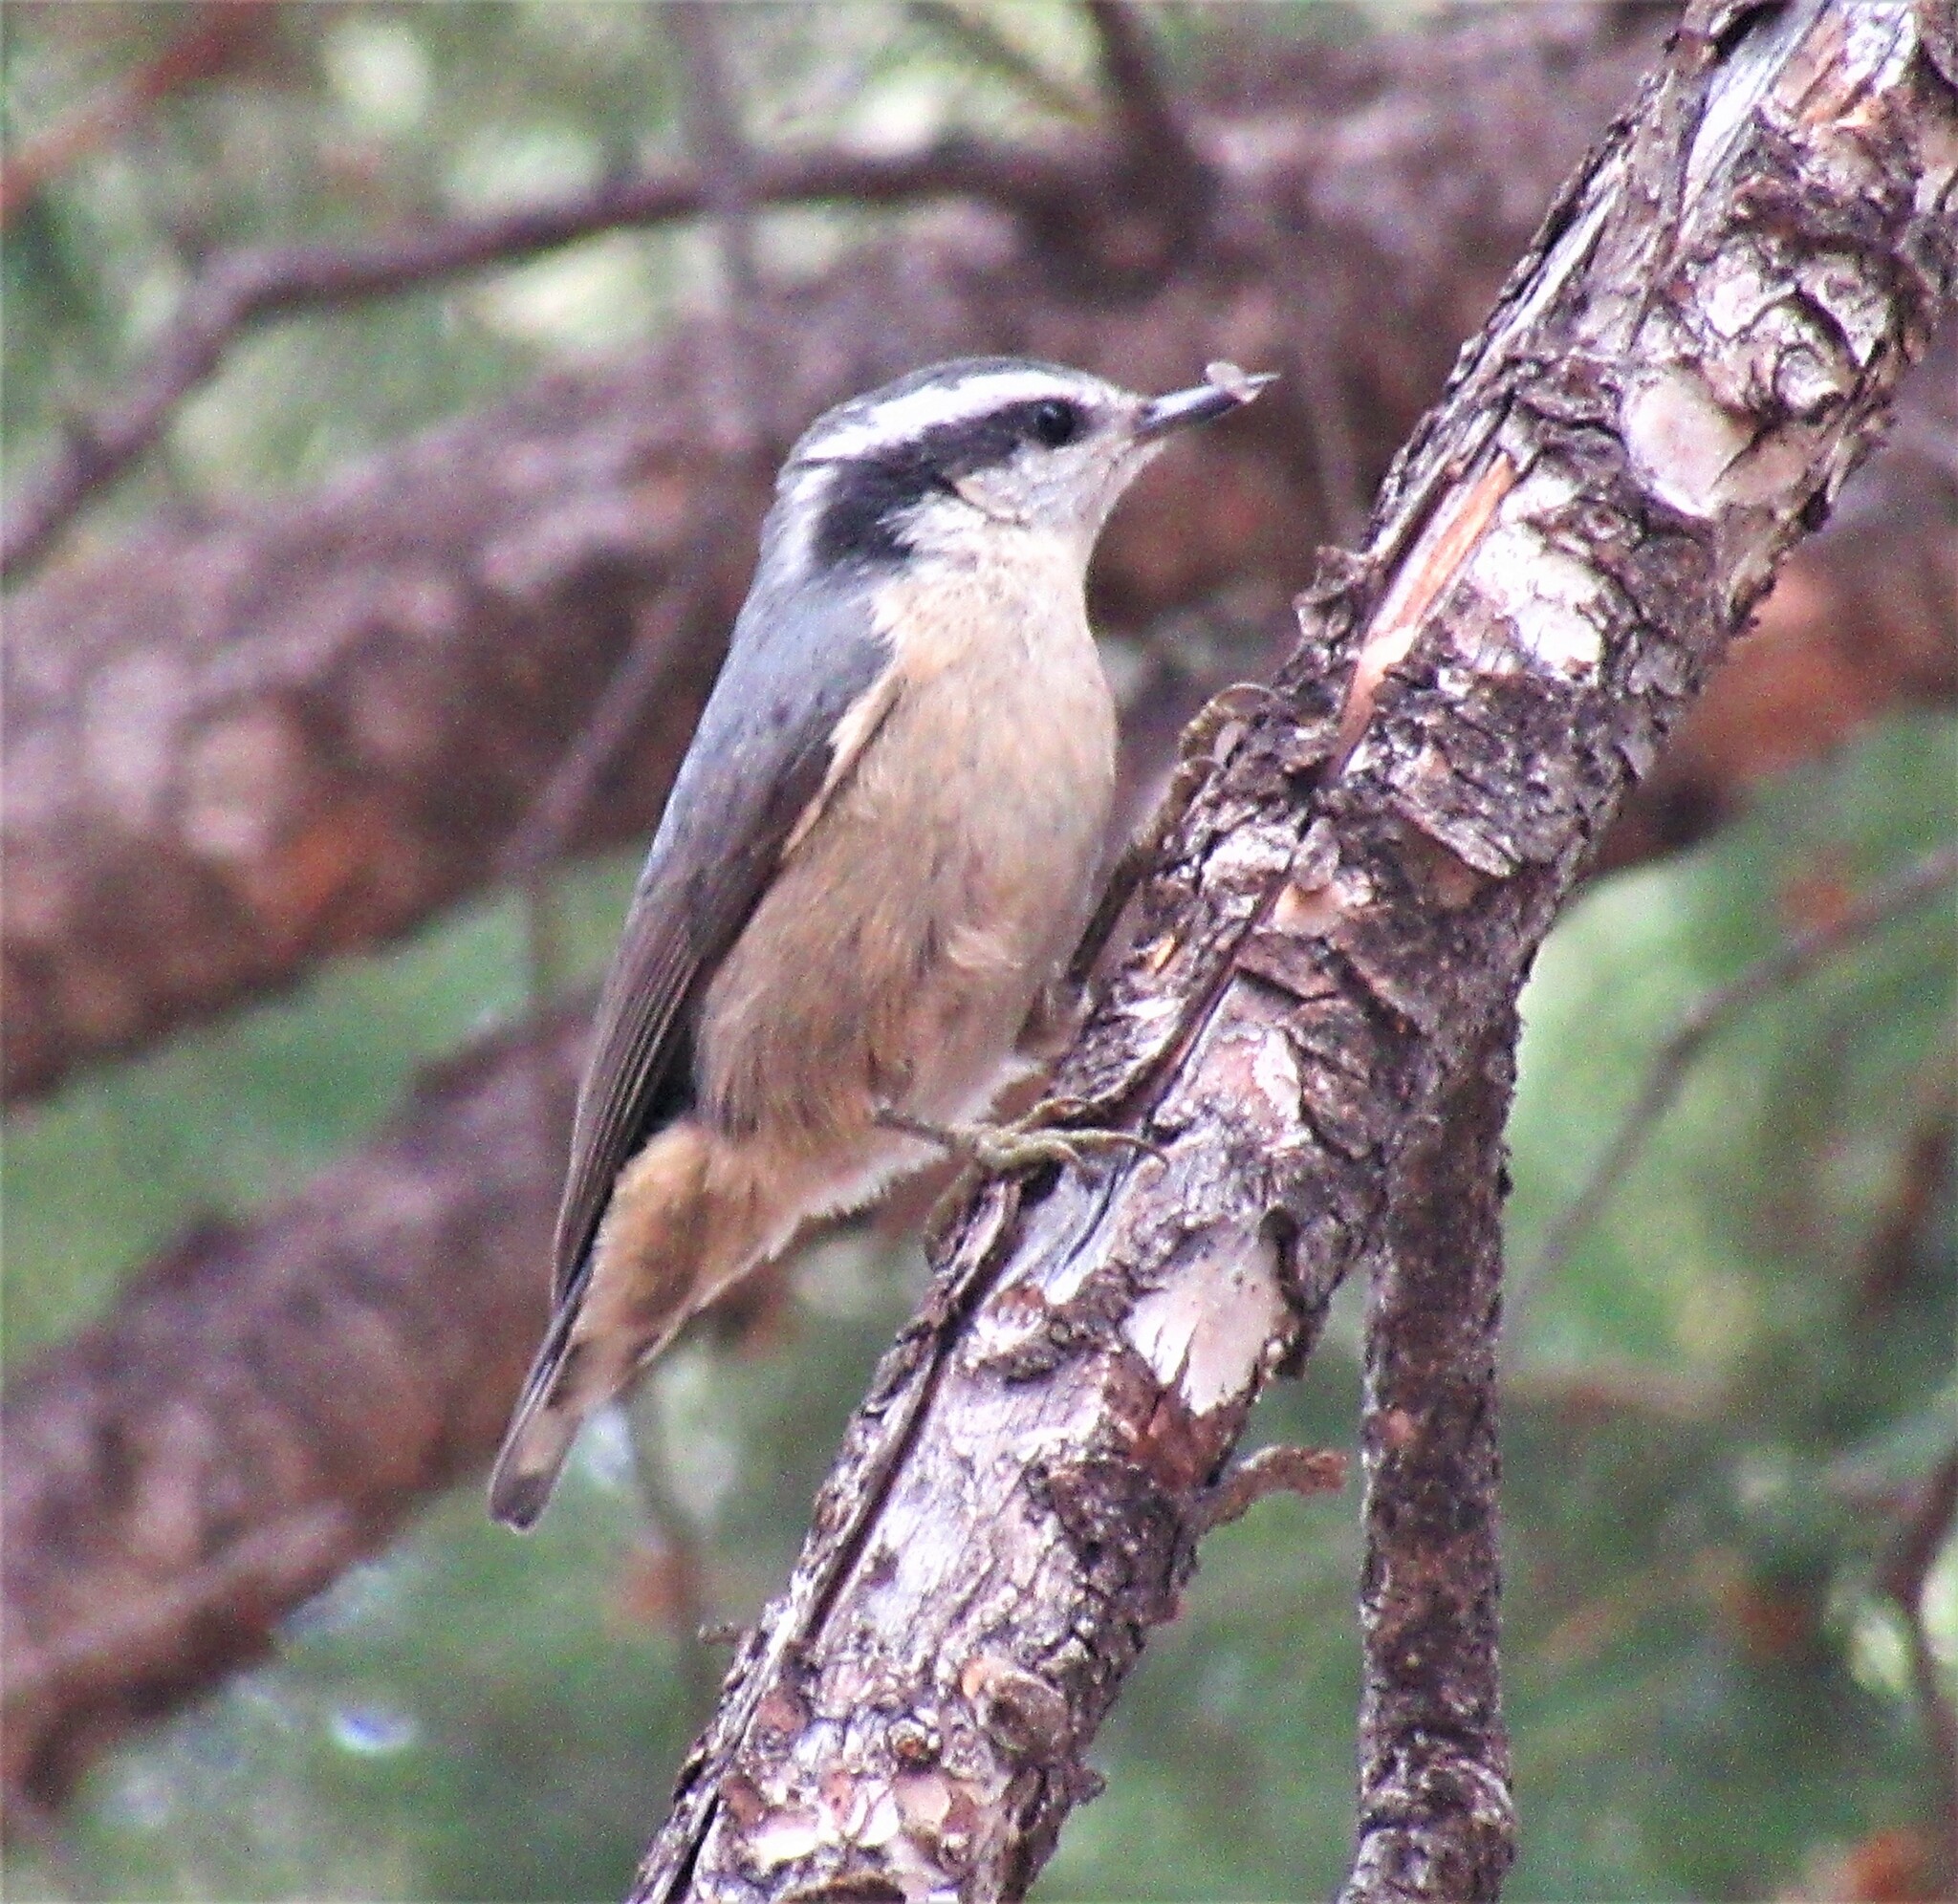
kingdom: Animalia
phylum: Chordata
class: Aves
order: Passeriformes
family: Sittidae
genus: Sitta
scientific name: Sitta canadensis
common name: Red-breasted nuthatch
